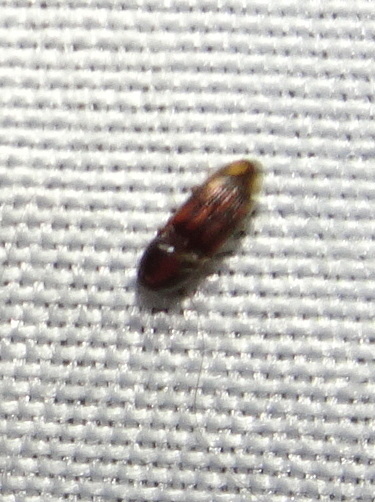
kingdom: Animalia
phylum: Arthropoda
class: Insecta
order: Coleoptera
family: Elateridae
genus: Monocrepidius
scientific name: Monocrepidius bellus
